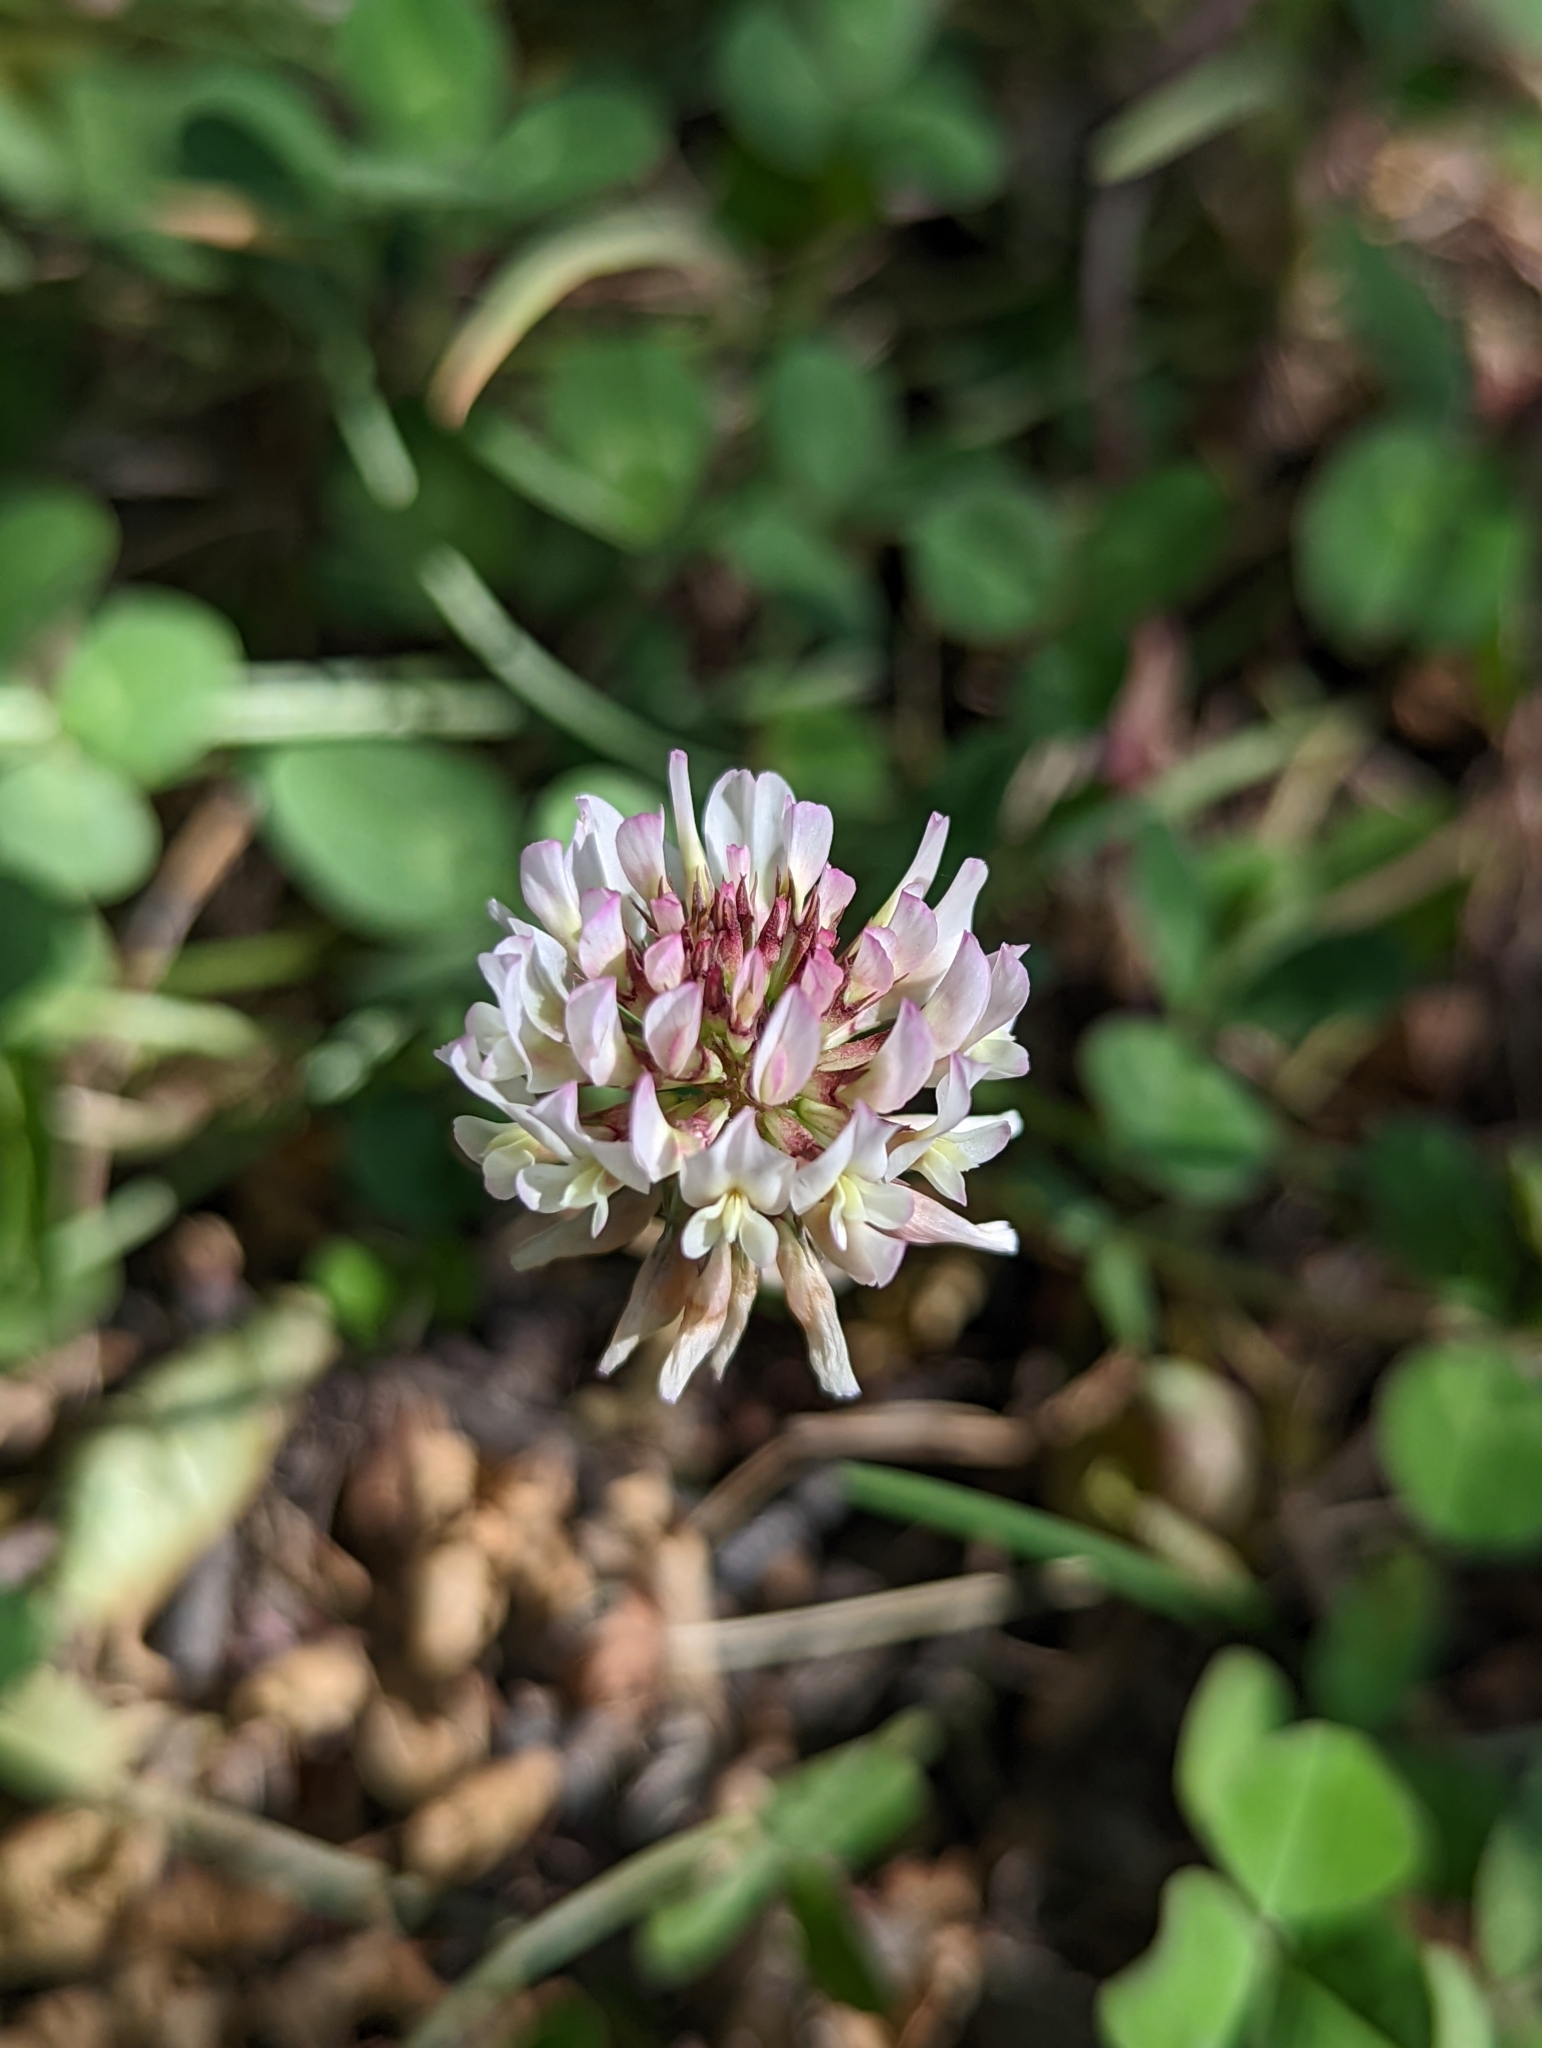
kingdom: Plantae
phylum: Tracheophyta
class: Magnoliopsida
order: Fabales
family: Fabaceae
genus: Trifolium
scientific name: Trifolium repens
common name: White clover
